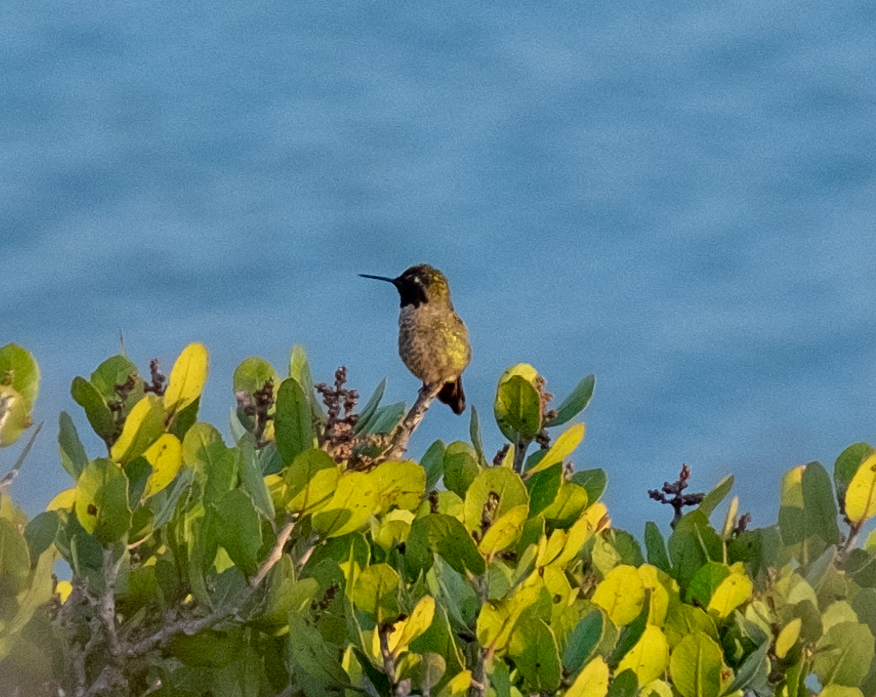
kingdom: Animalia
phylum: Chordata
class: Aves
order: Apodiformes
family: Trochilidae
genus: Calypte
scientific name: Calypte anna
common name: Anna's hummingbird
